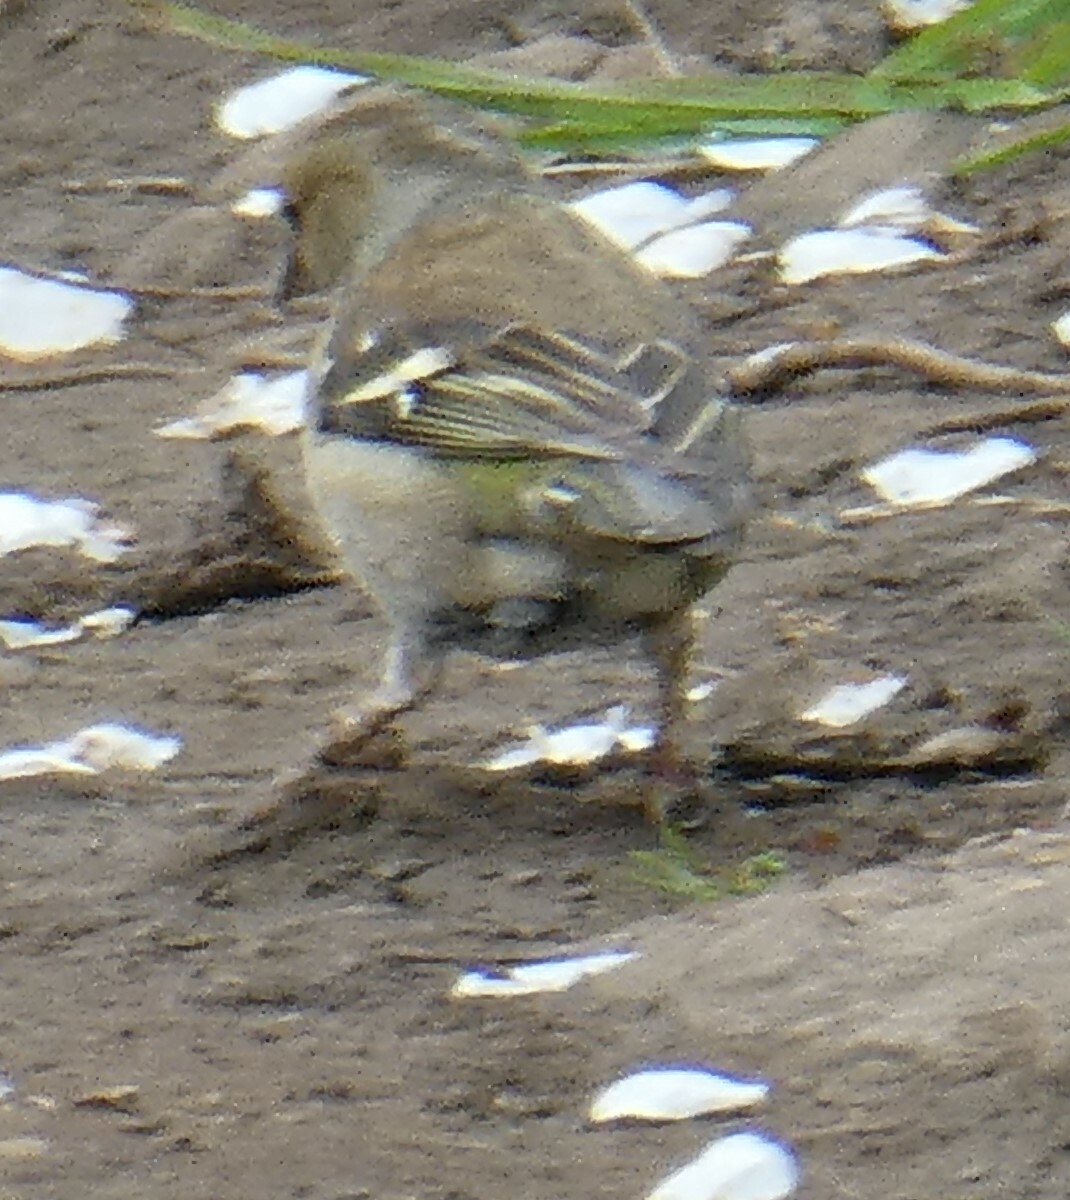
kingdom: Animalia
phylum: Chordata
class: Aves
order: Passeriformes
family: Fringillidae
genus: Fringilla
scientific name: Fringilla coelebs
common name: Common chaffinch
